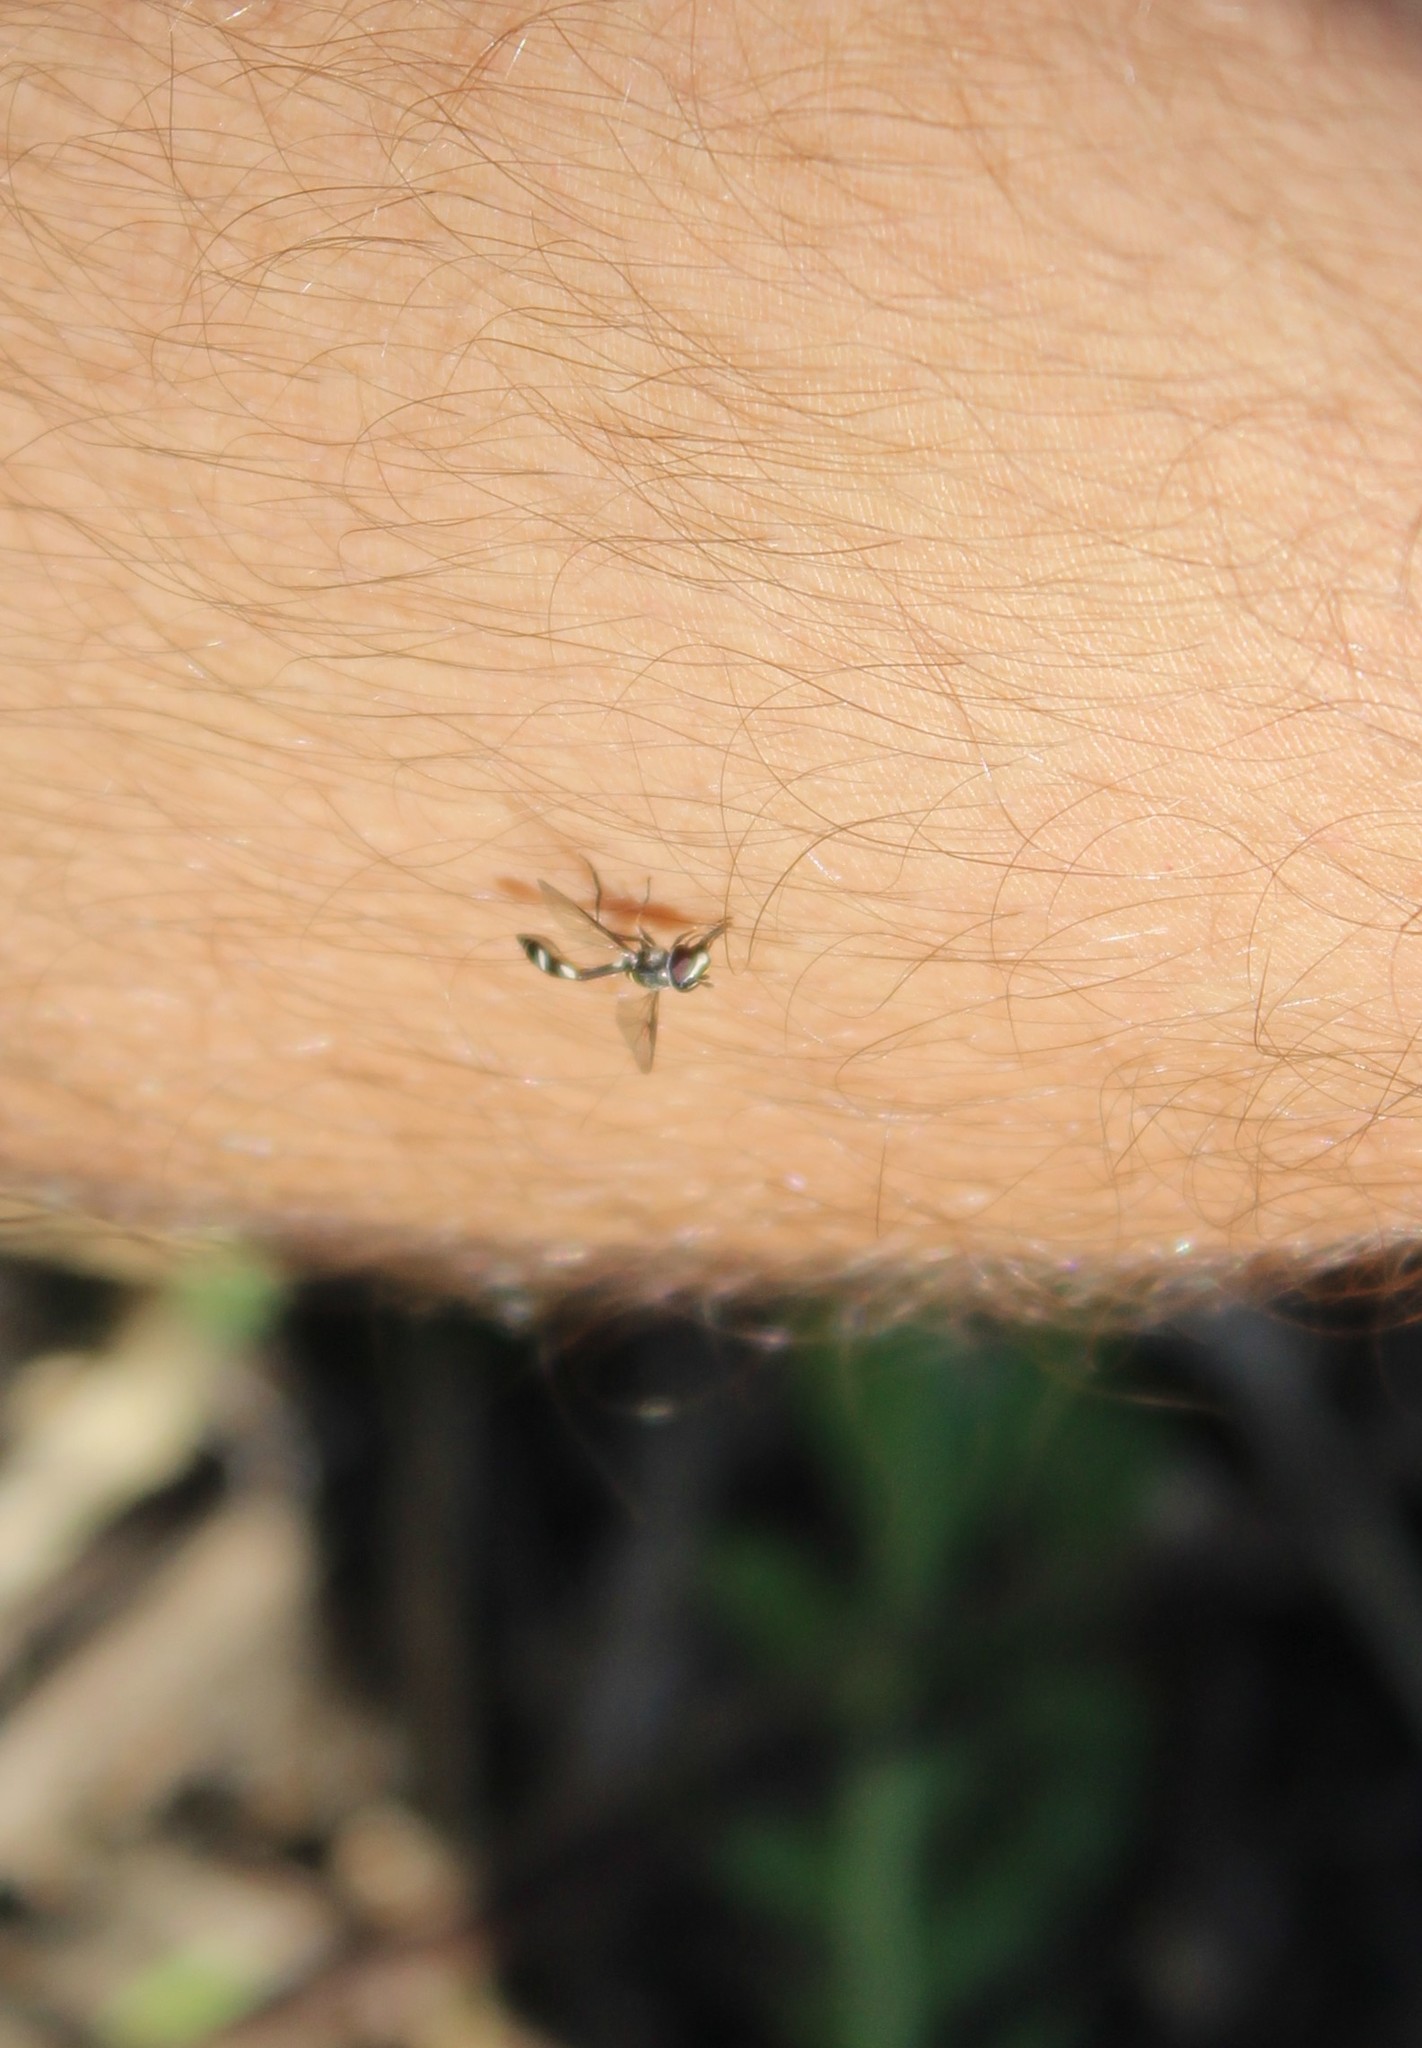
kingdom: Animalia
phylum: Arthropoda
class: Insecta
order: Diptera
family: Syrphidae
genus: Dioprosopa
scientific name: Dioprosopa clavatus
